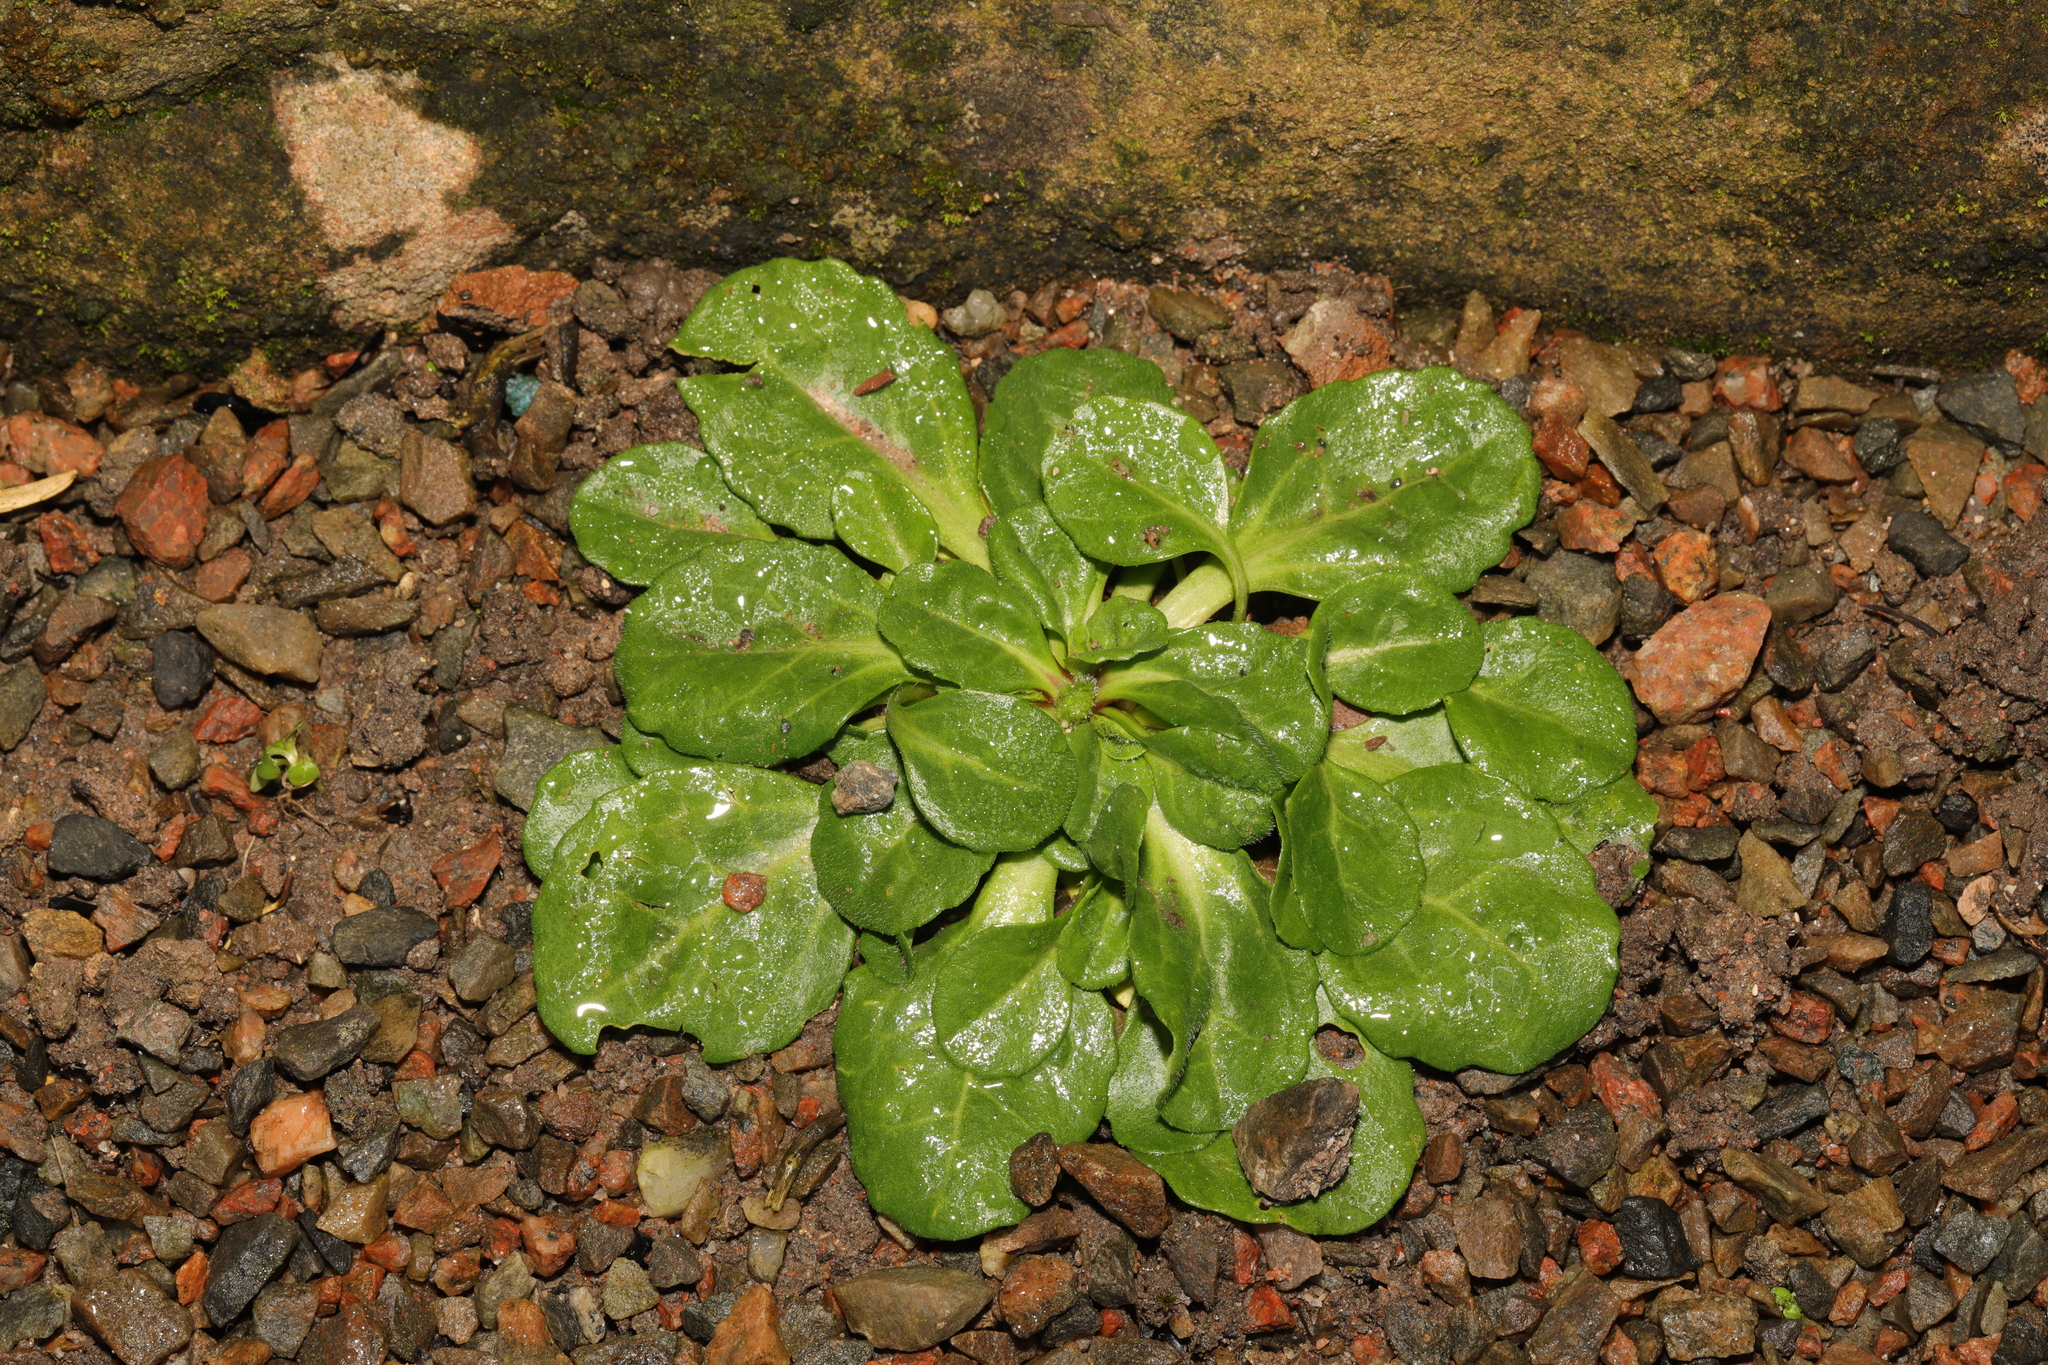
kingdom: Plantae
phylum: Tracheophyta
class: Magnoliopsida
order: Asterales
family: Asteraceae
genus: Bellis
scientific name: Bellis perennis
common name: Lawndaisy
